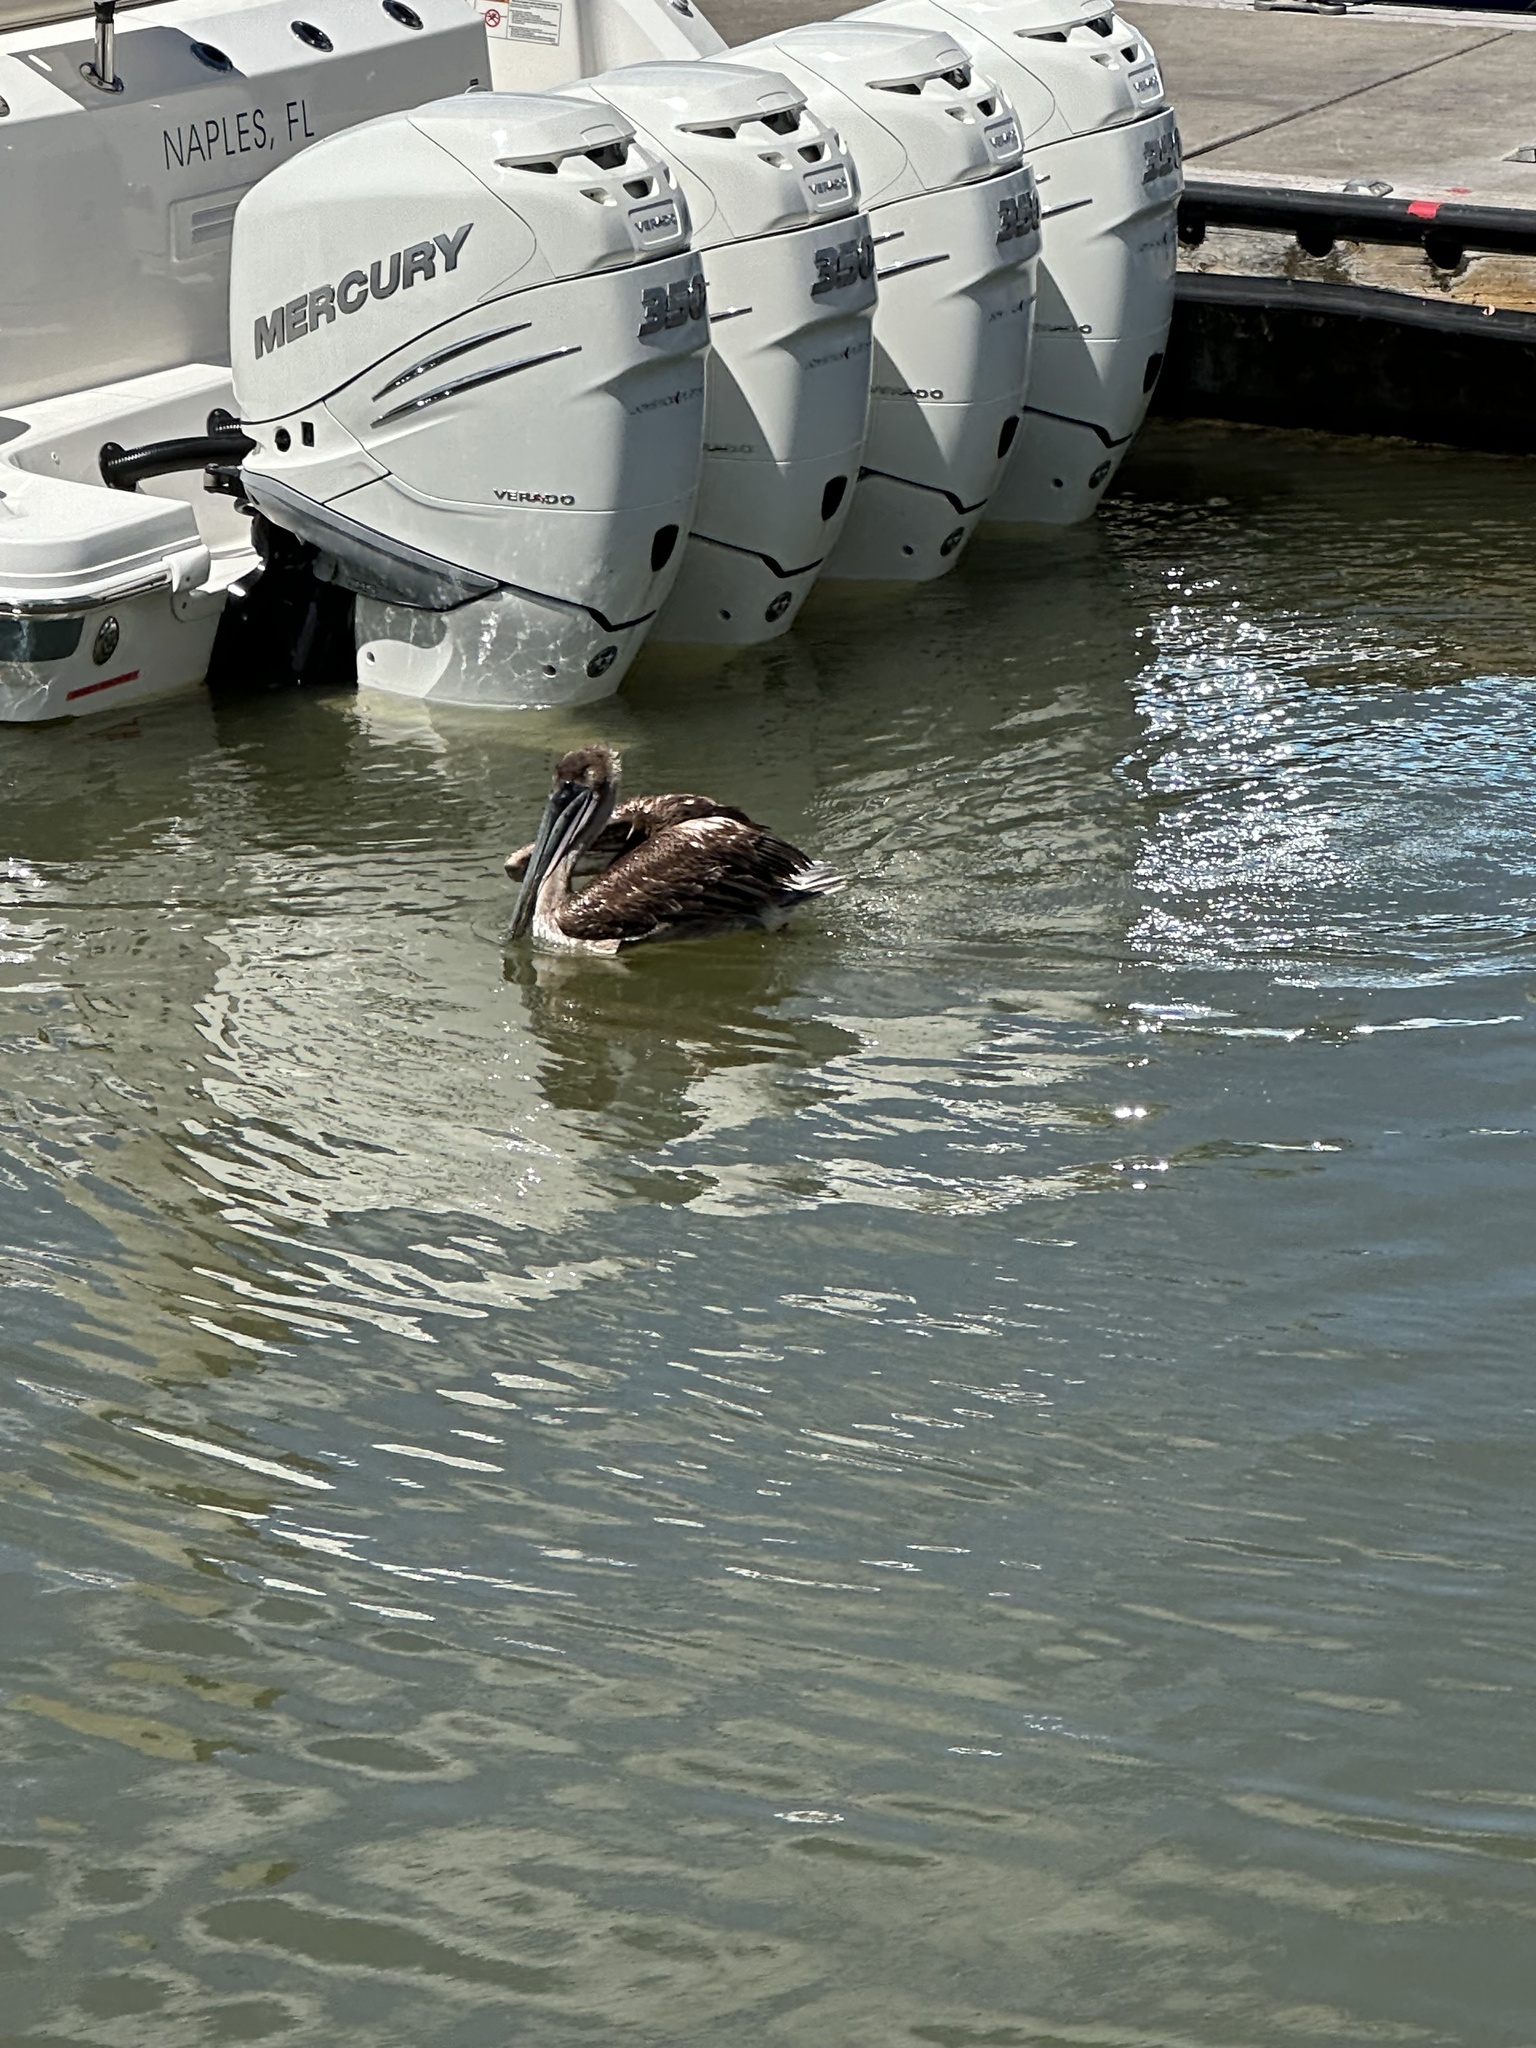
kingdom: Animalia
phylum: Chordata
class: Aves
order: Pelecaniformes
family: Pelecanidae
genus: Pelecanus
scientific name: Pelecanus occidentalis
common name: Brown pelican
